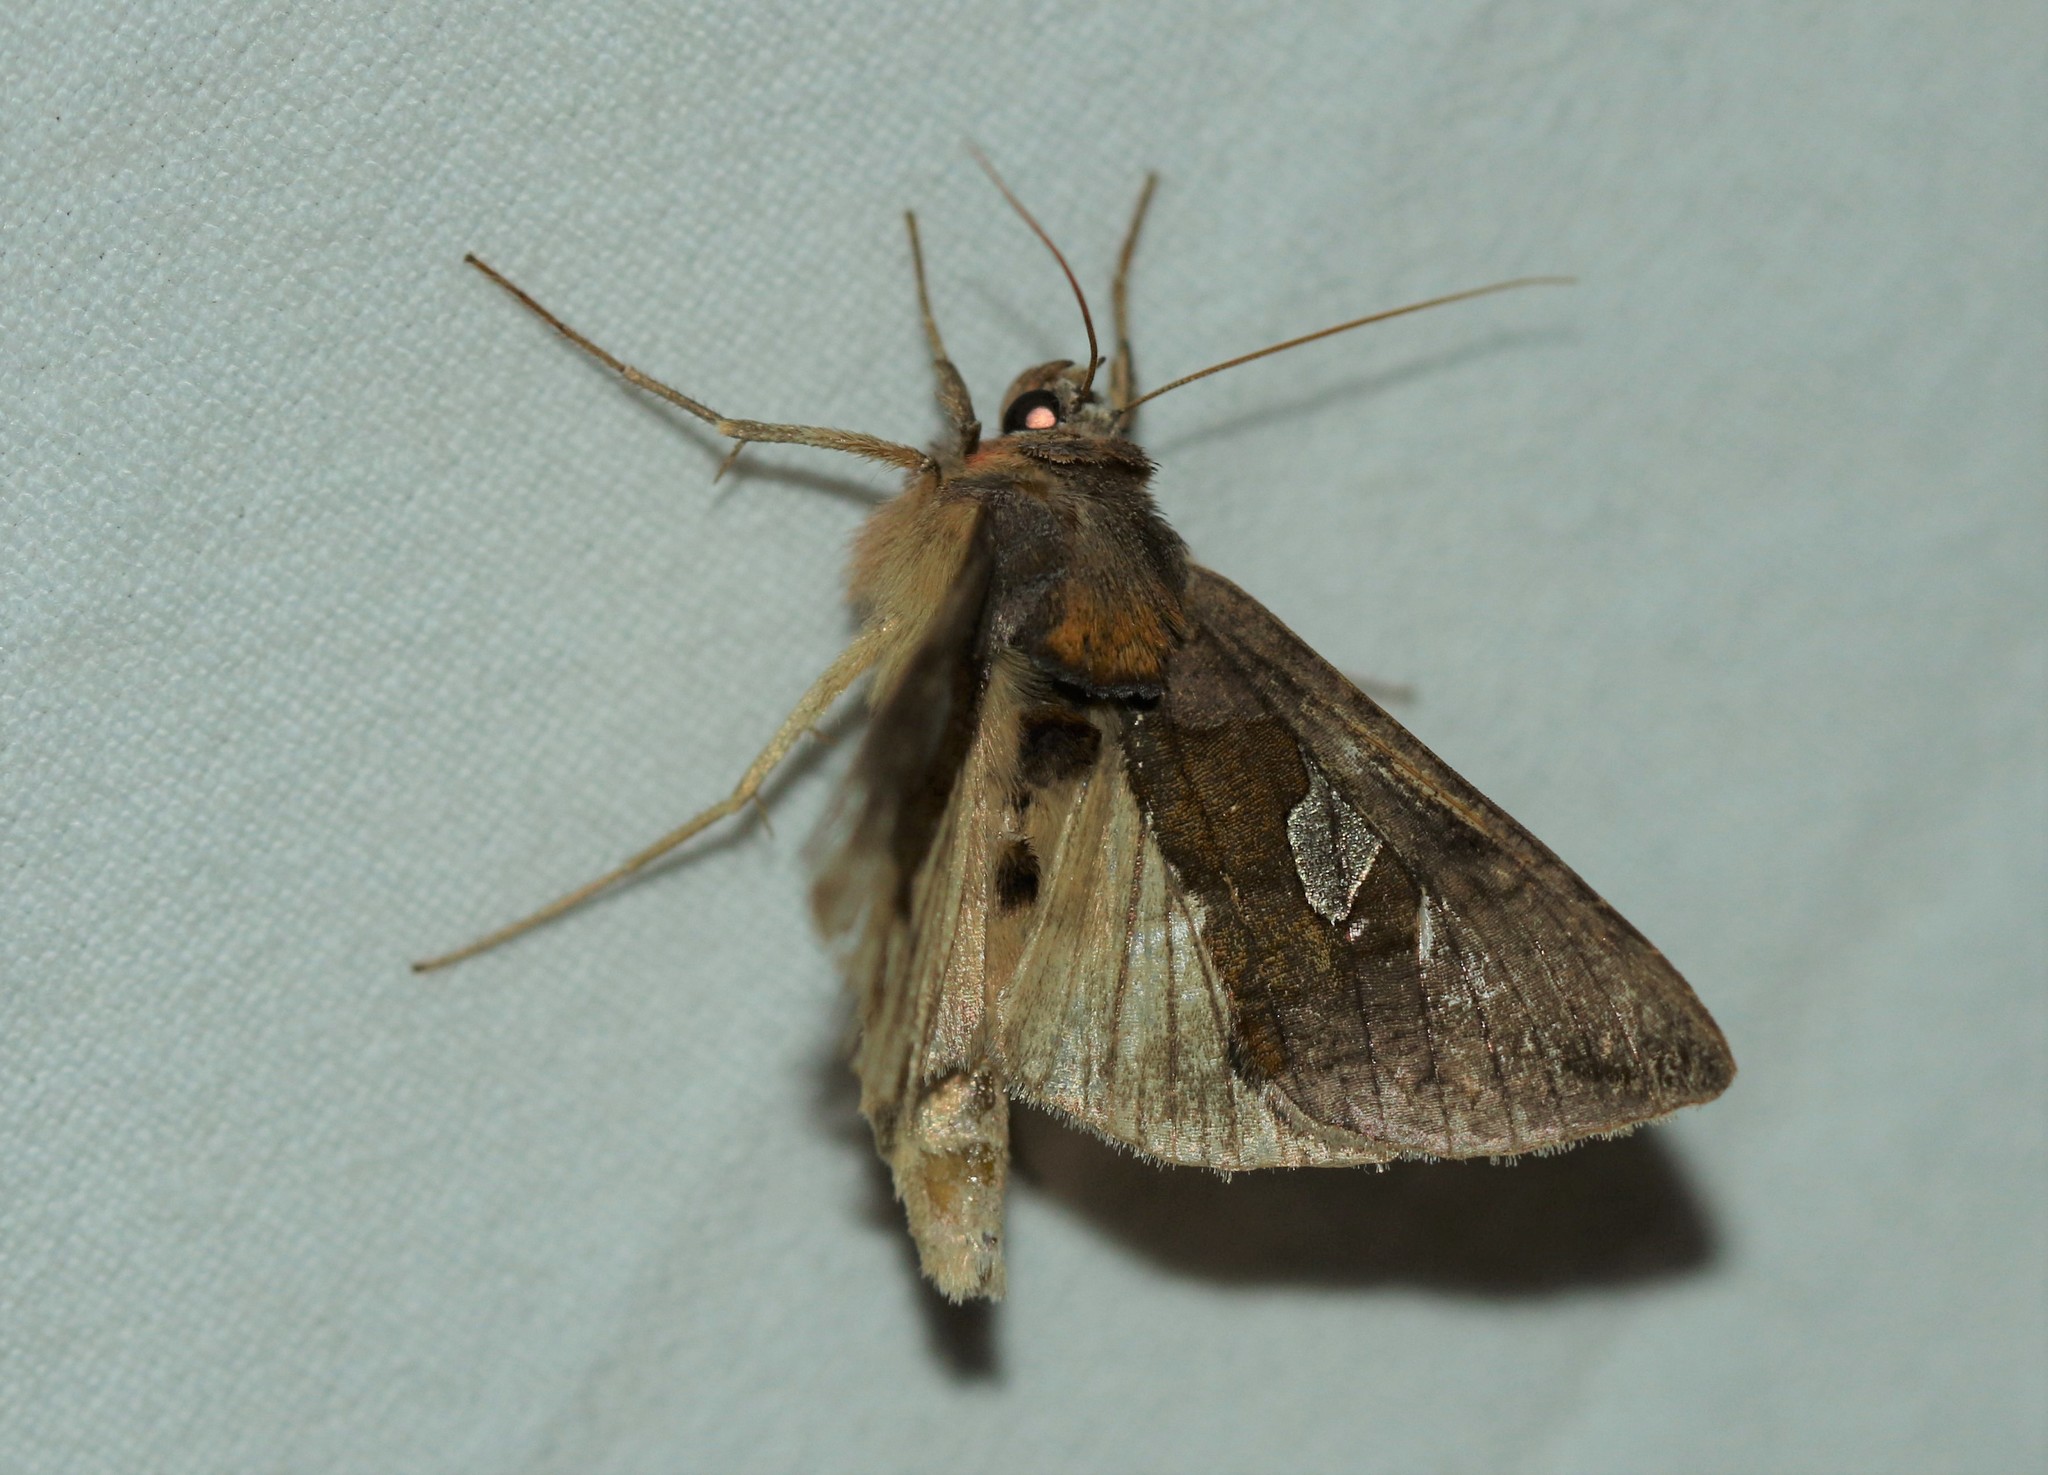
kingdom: Animalia
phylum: Arthropoda
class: Insecta
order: Lepidoptera
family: Noctuidae
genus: Autographa
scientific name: Autographa bractea
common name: Gold spangle
